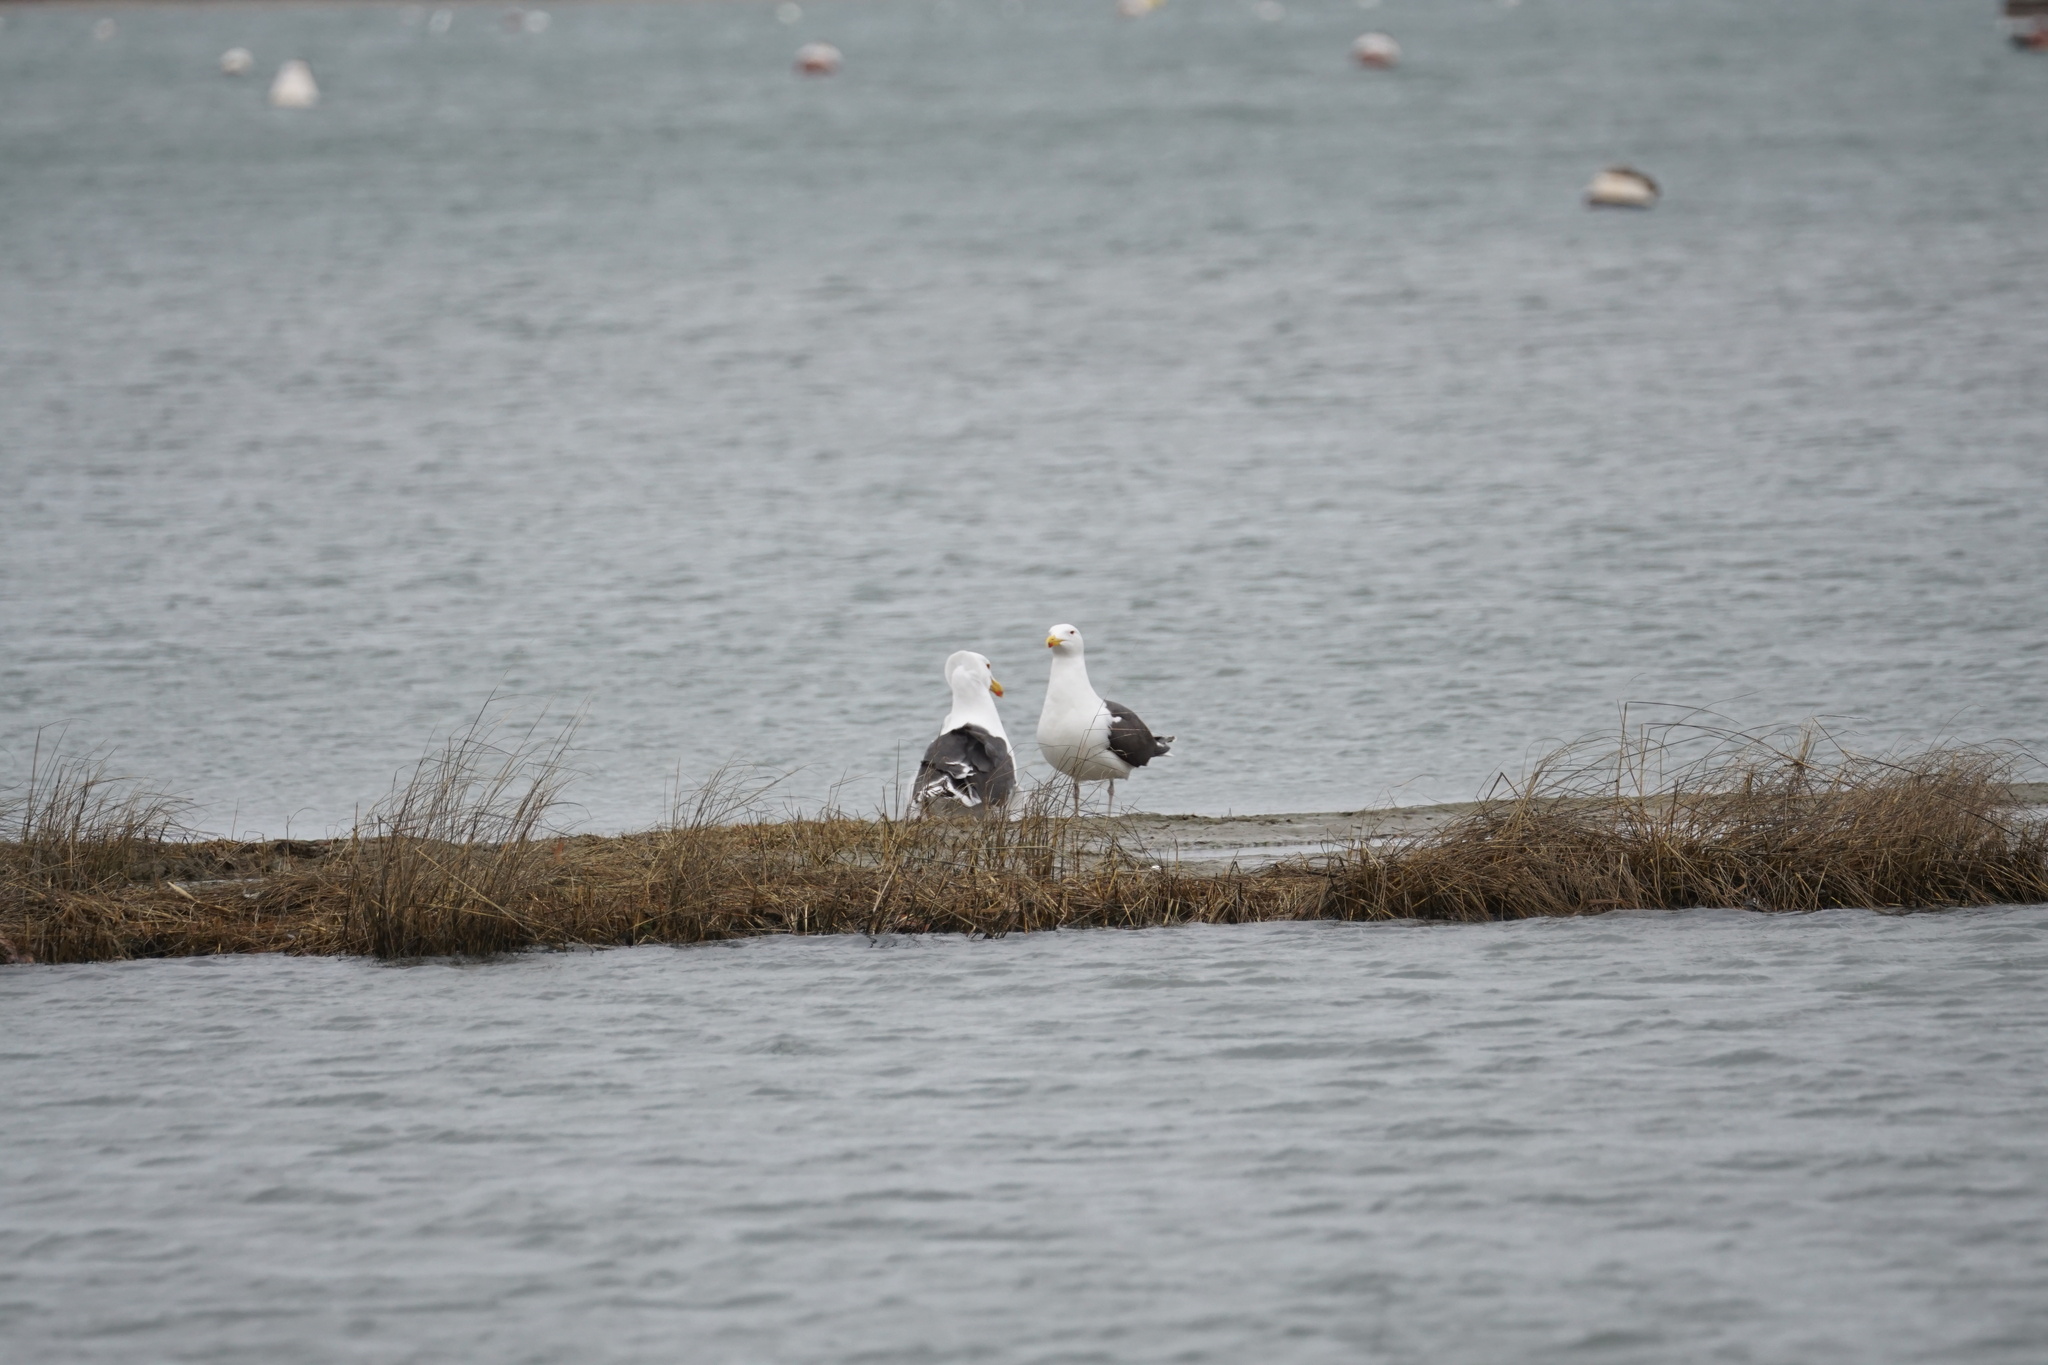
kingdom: Animalia
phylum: Chordata
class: Aves
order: Charadriiformes
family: Laridae
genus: Larus
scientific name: Larus marinus
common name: Great black-backed gull
